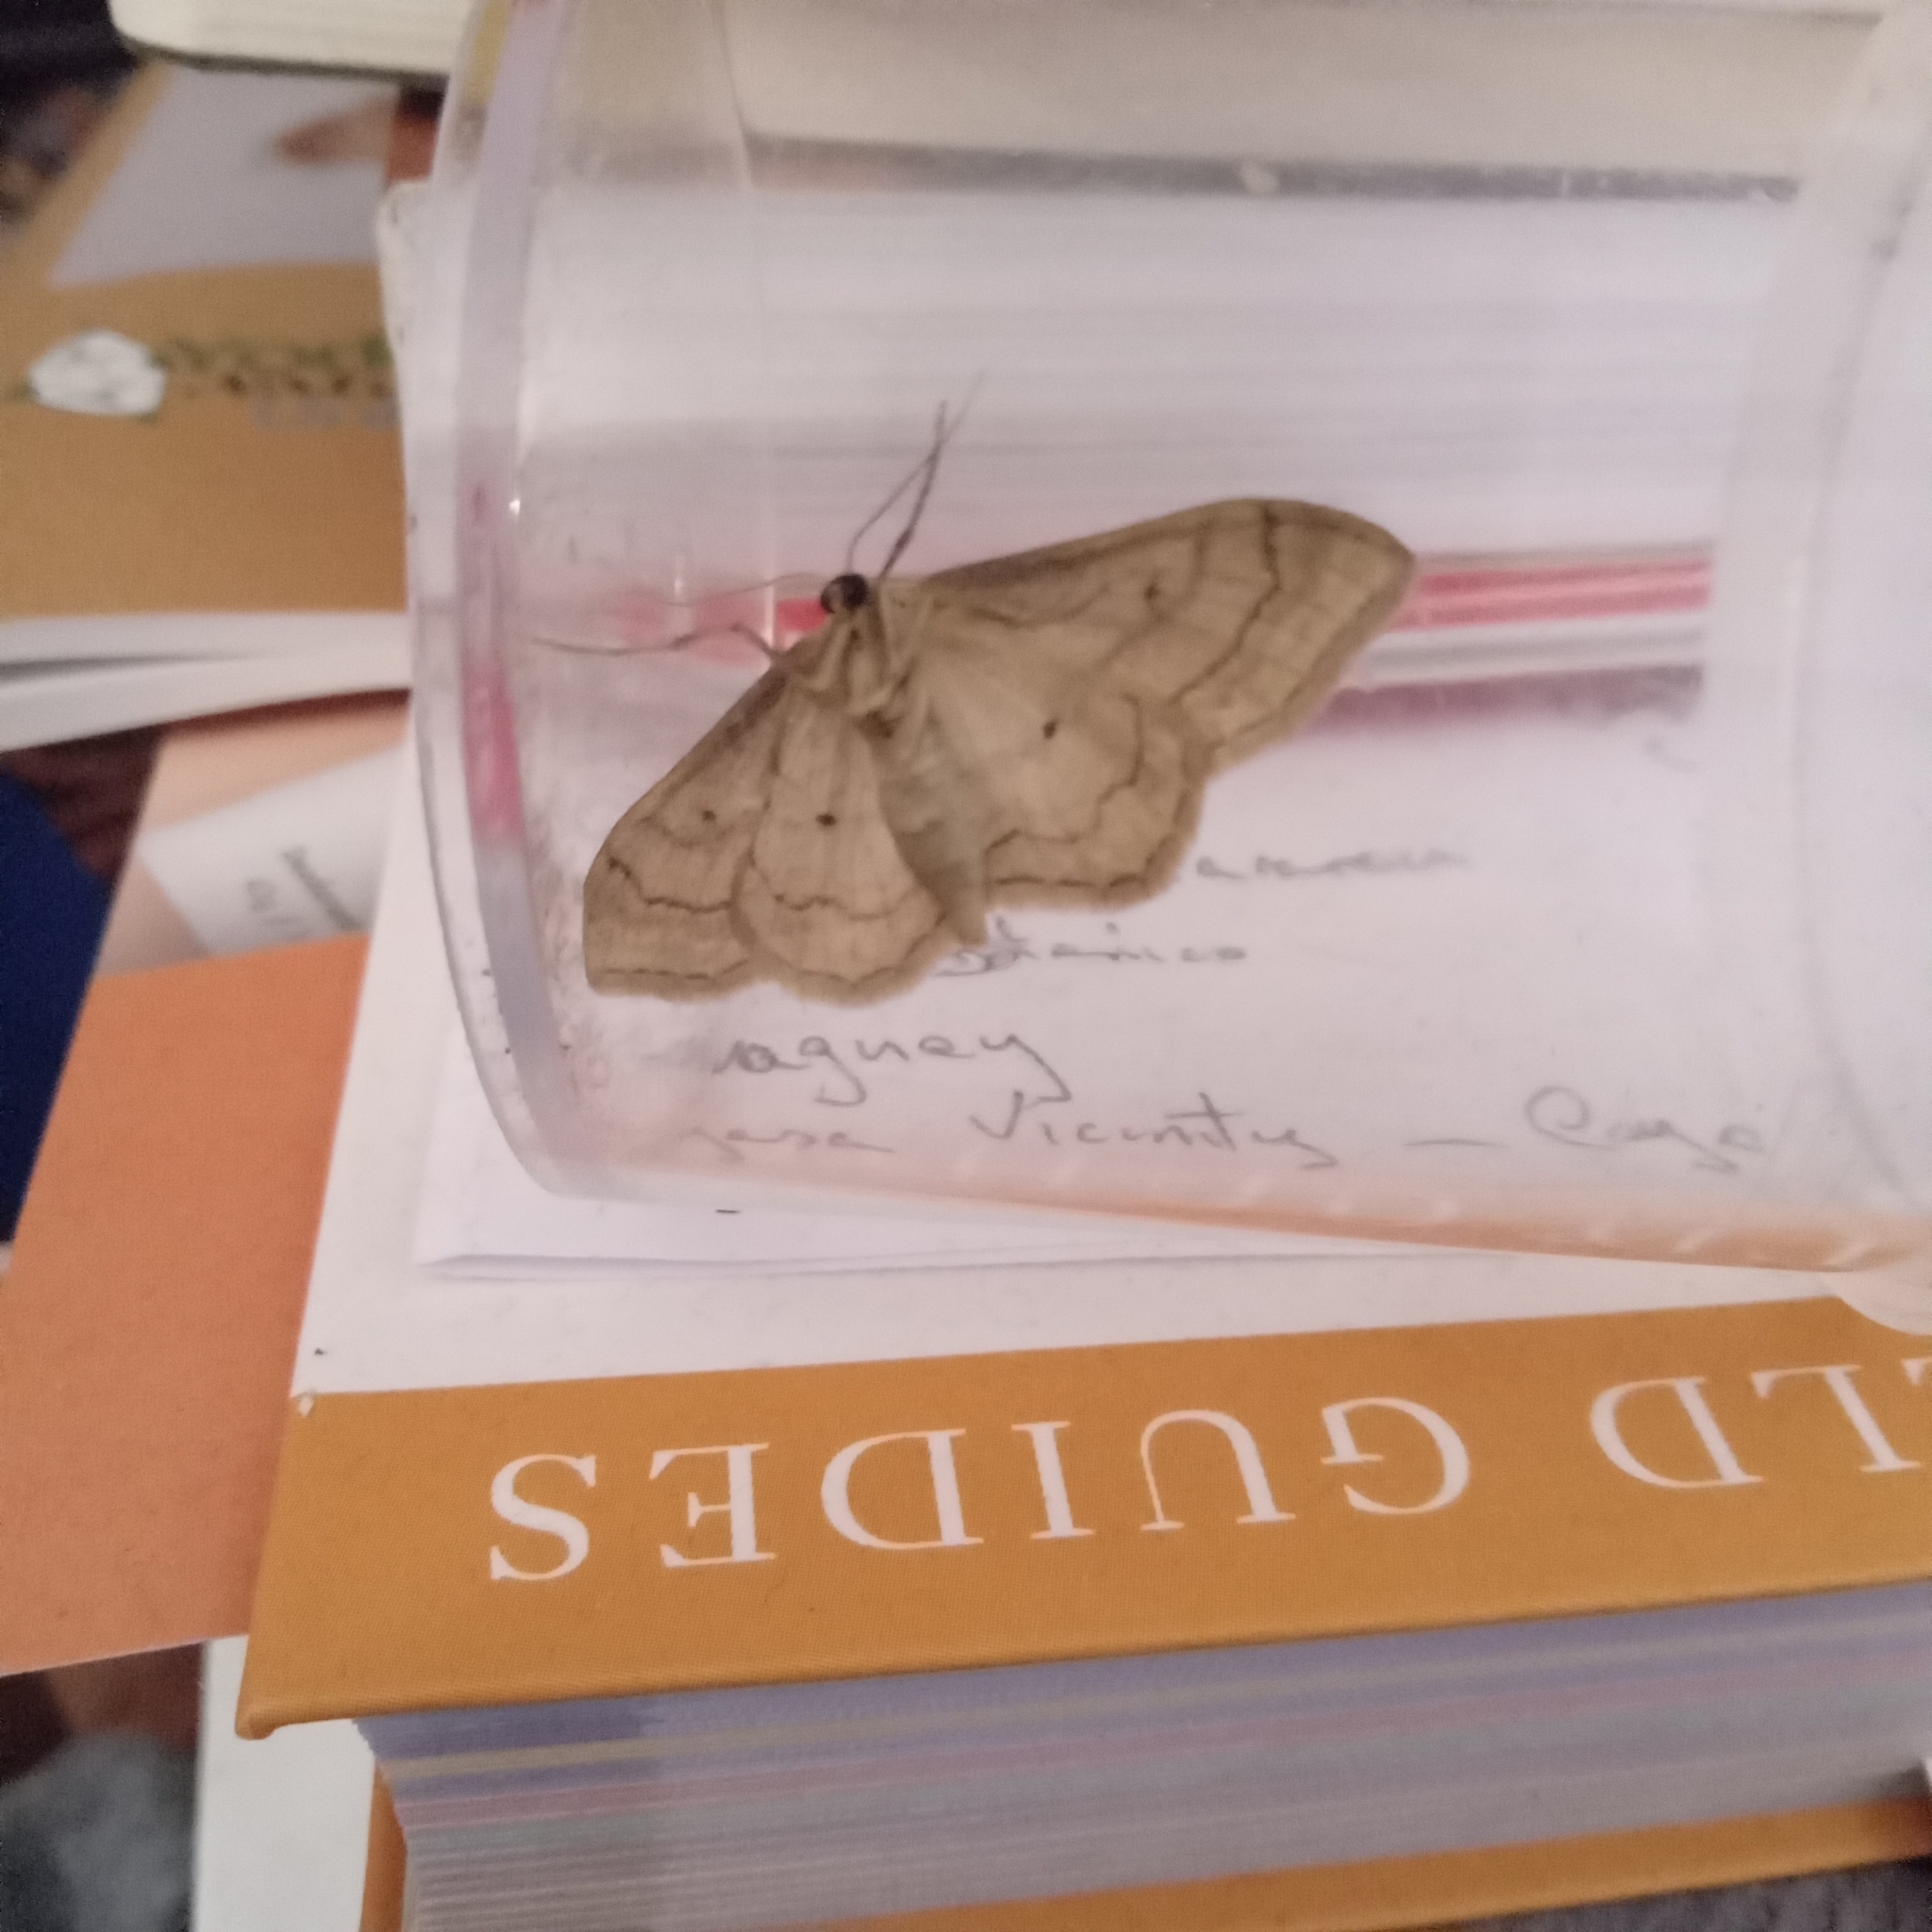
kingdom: Animalia
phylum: Arthropoda
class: Insecta
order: Lepidoptera
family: Geometridae
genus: Idaea
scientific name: Idaea aversata
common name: Riband wave
